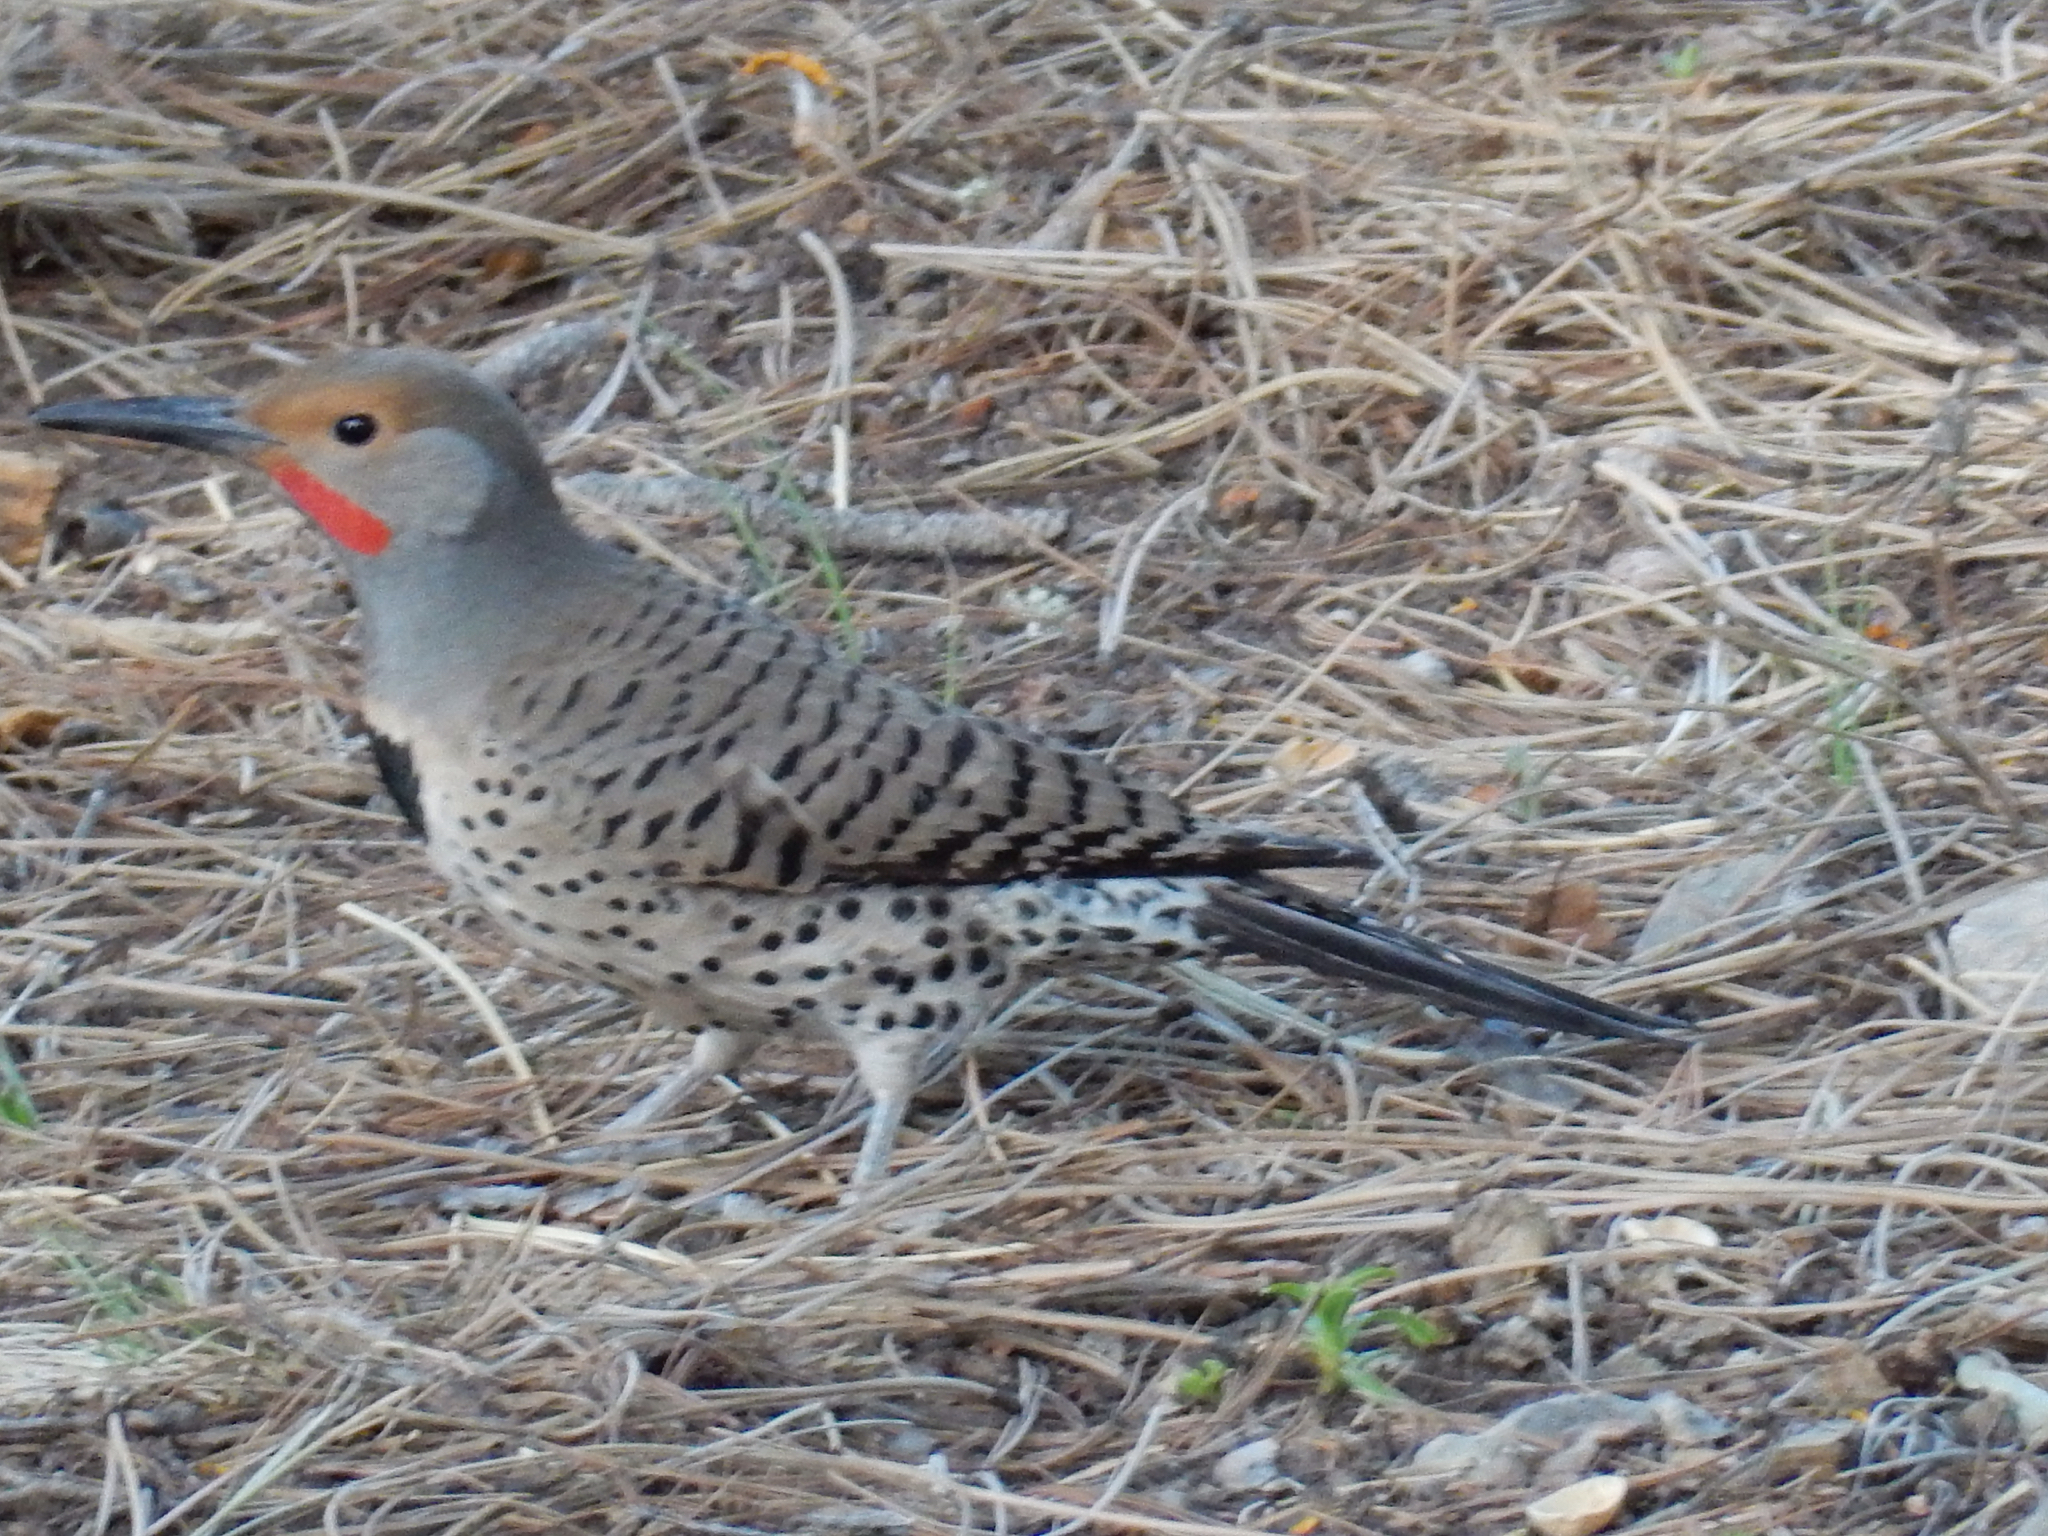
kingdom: Animalia
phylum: Chordata
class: Aves
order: Piciformes
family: Picidae
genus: Colaptes
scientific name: Colaptes auratus
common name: Northern flicker
